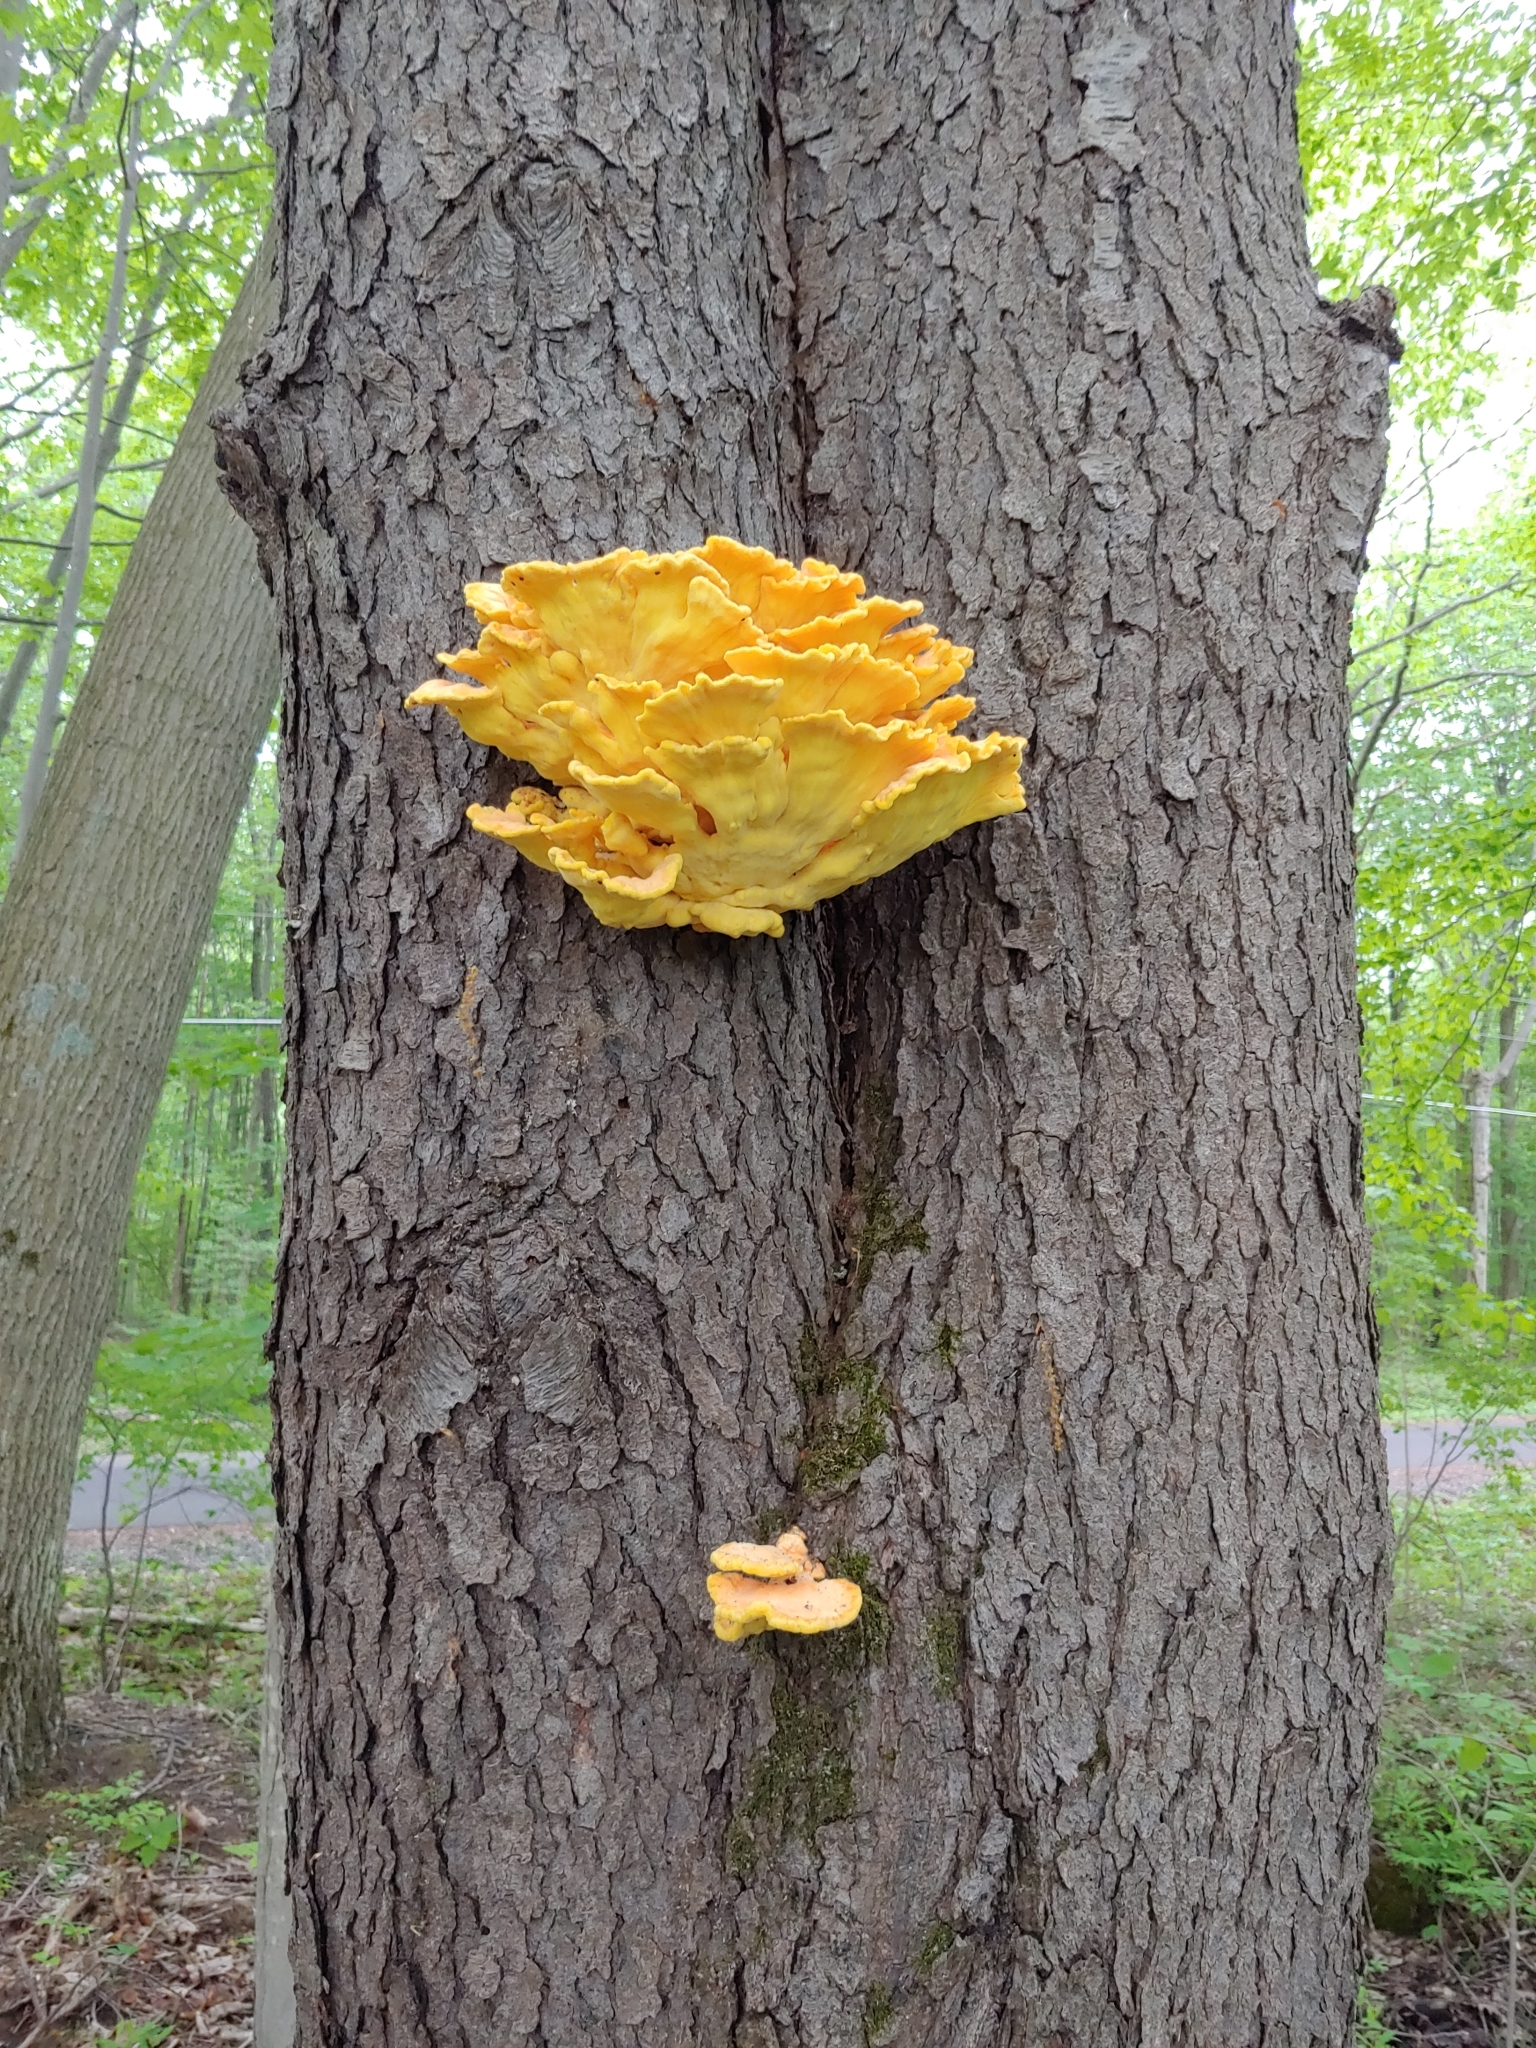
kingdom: Fungi
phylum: Basidiomycota
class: Agaricomycetes
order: Polyporales
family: Laetiporaceae
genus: Laetiporus
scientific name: Laetiporus sulphureus
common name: Chicken of the woods
